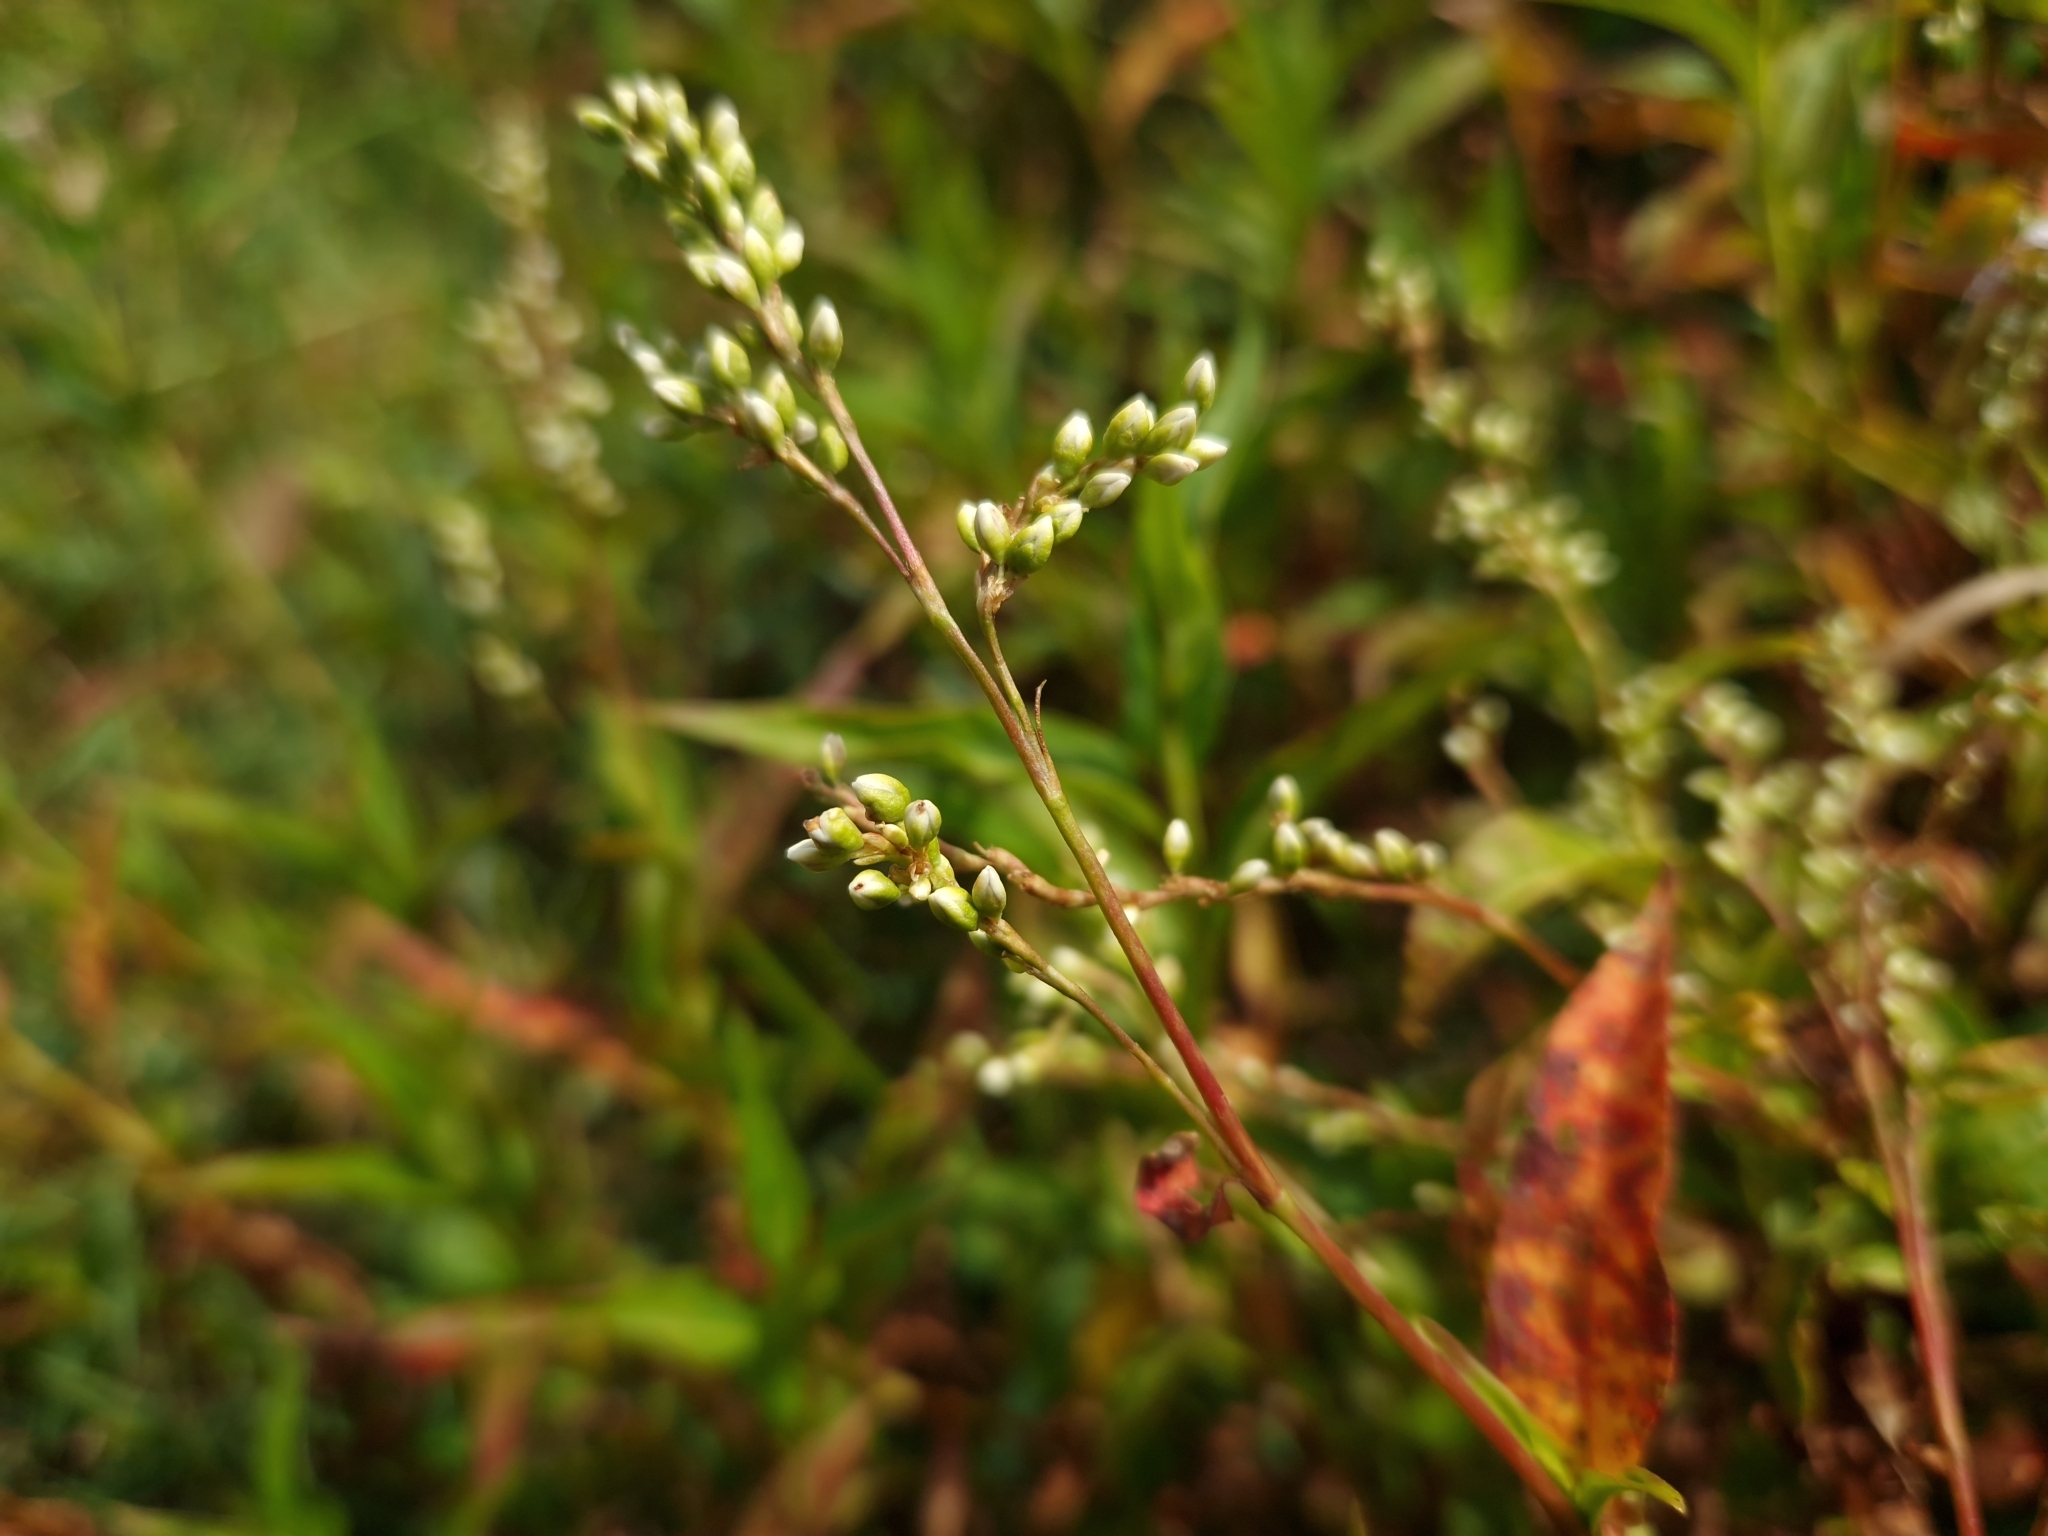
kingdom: Plantae
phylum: Tracheophyta
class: Magnoliopsida
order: Caryophyllales
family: Polygonaceae
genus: Persicaria
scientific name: Persicaria punctata
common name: Dotted smartweed
